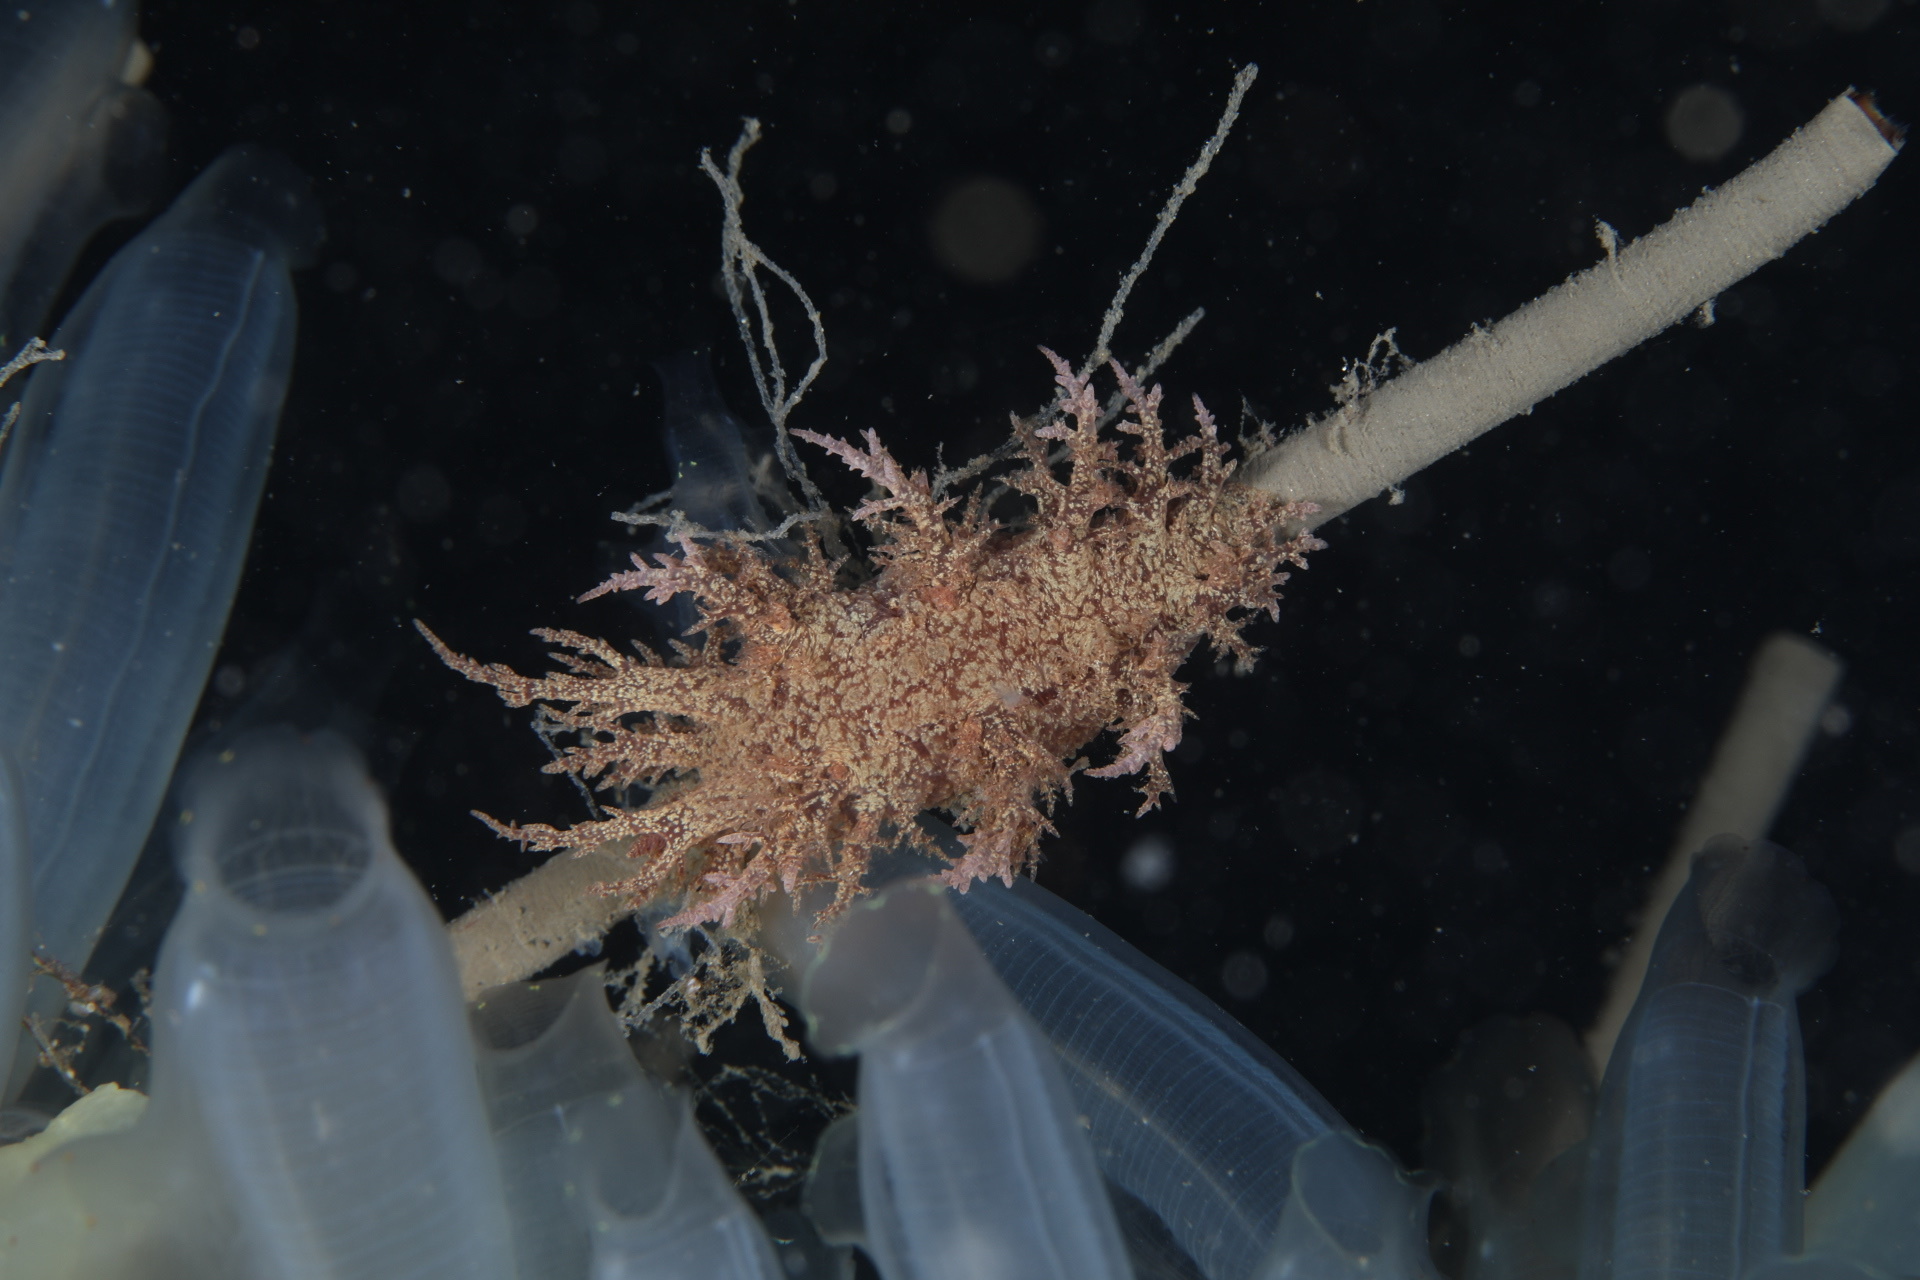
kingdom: Animalia
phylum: Mollusca
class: Gastropoda
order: Nudibranchia
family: Dendronotidae
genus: Dendronotus
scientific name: Dendronotus europaeus
